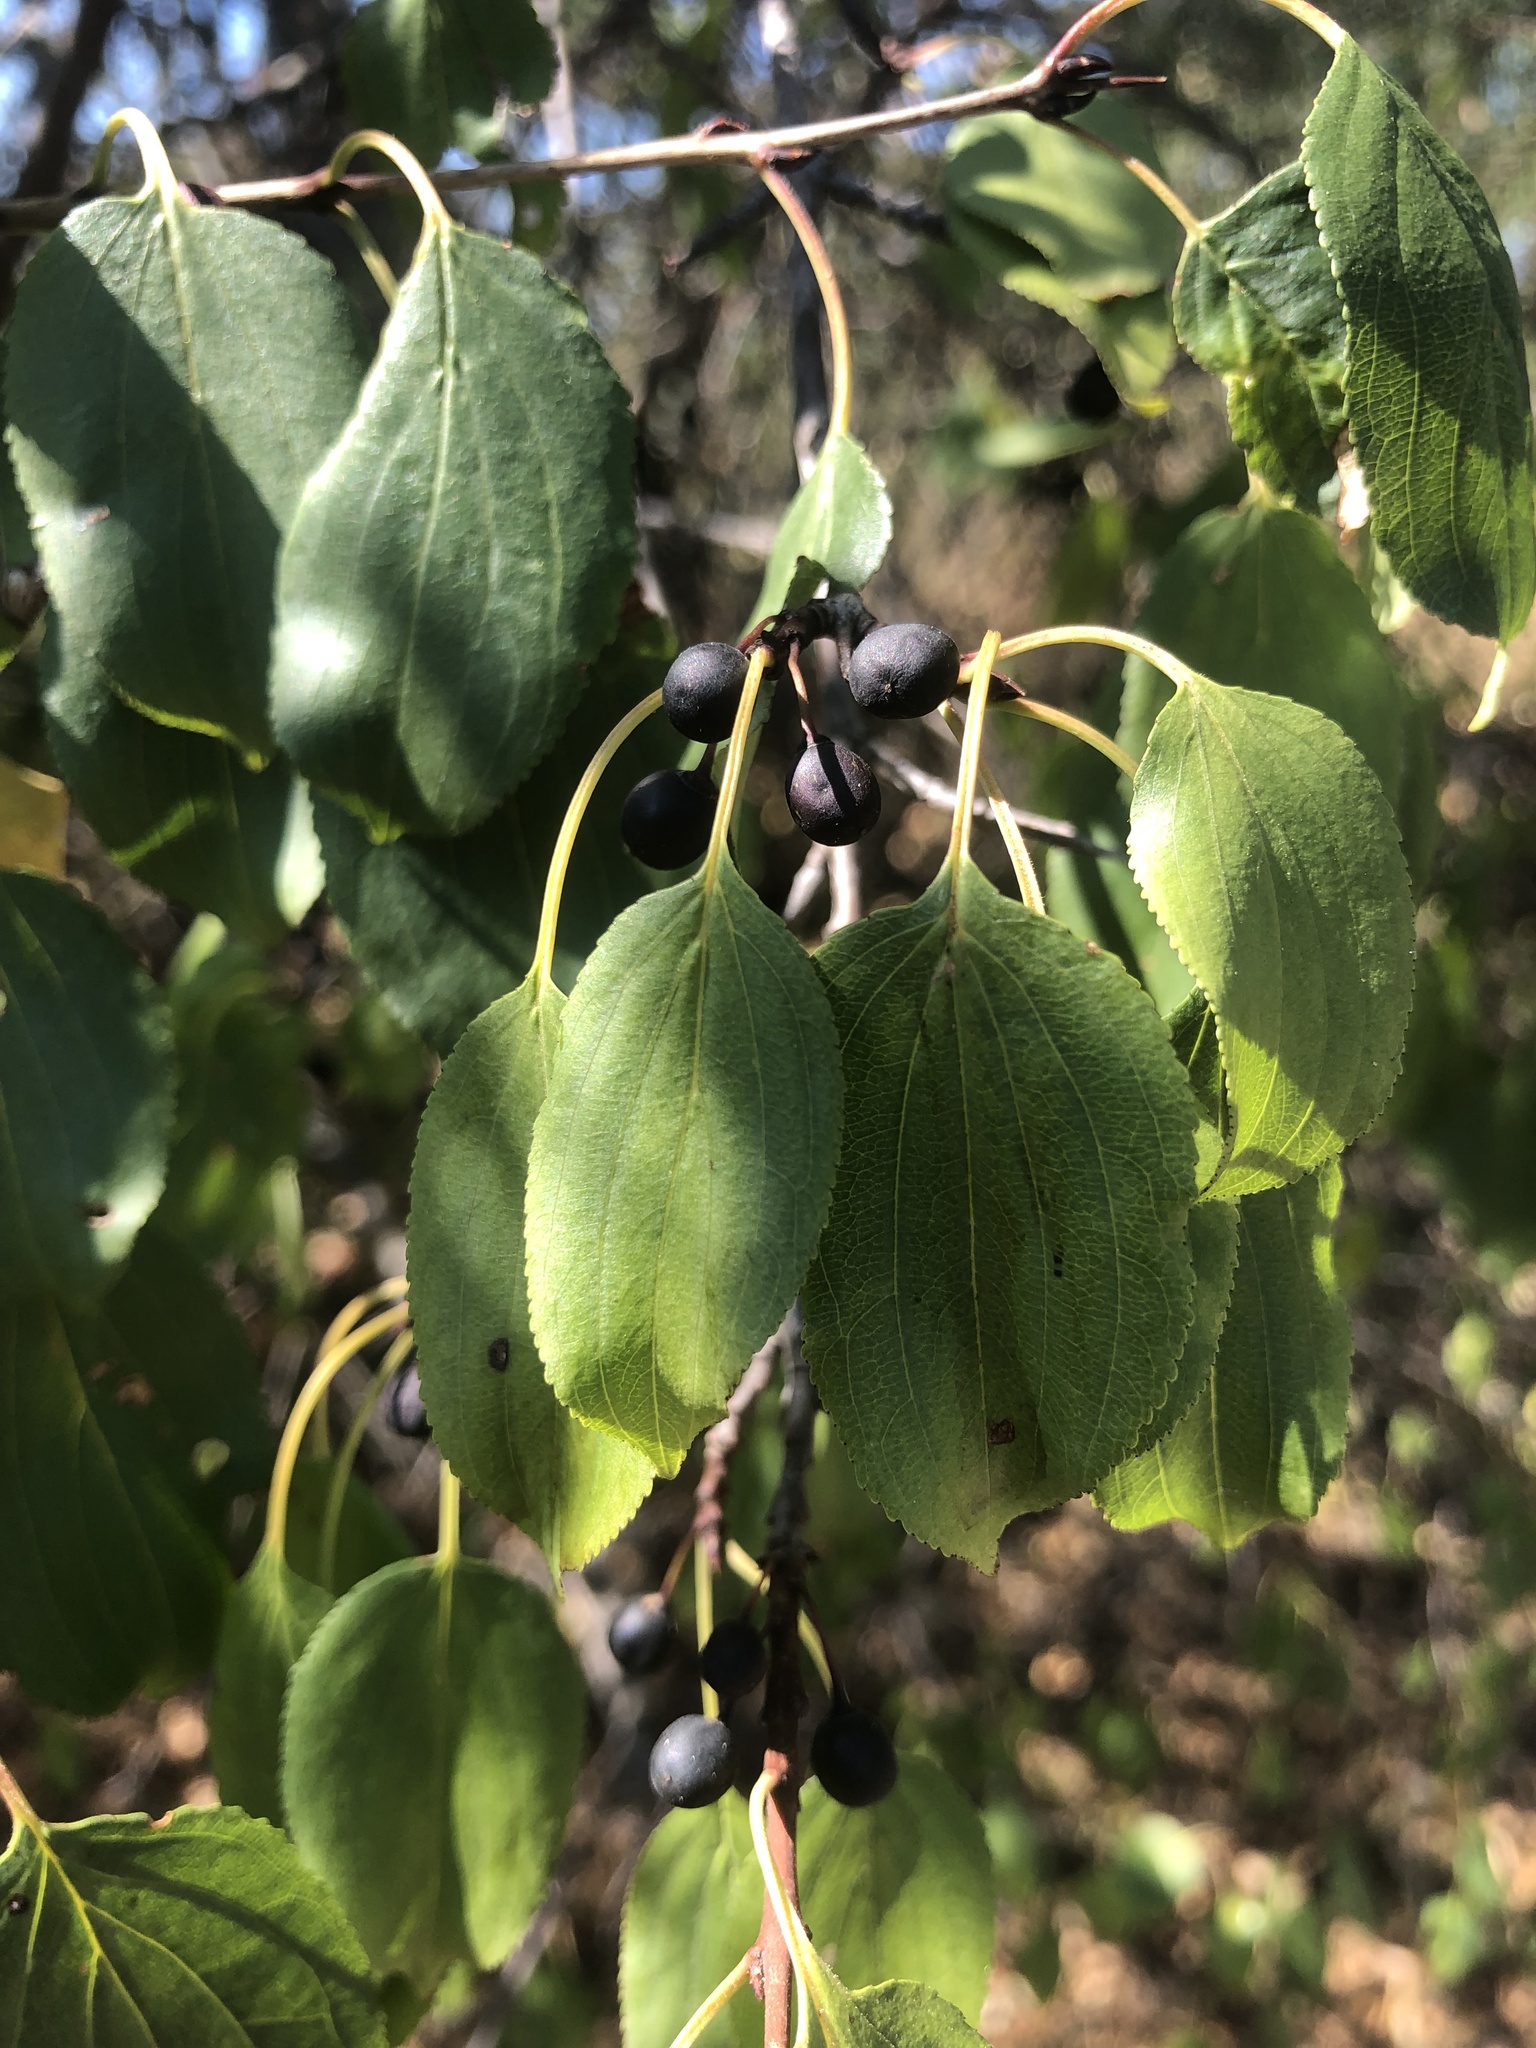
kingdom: Plantae
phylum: Tracheophyta
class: Magnoliopsida
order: Rosales
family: Rhamnaceae
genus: Rhamnus
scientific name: Rhamnus cathartica
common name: Common buckthorn
